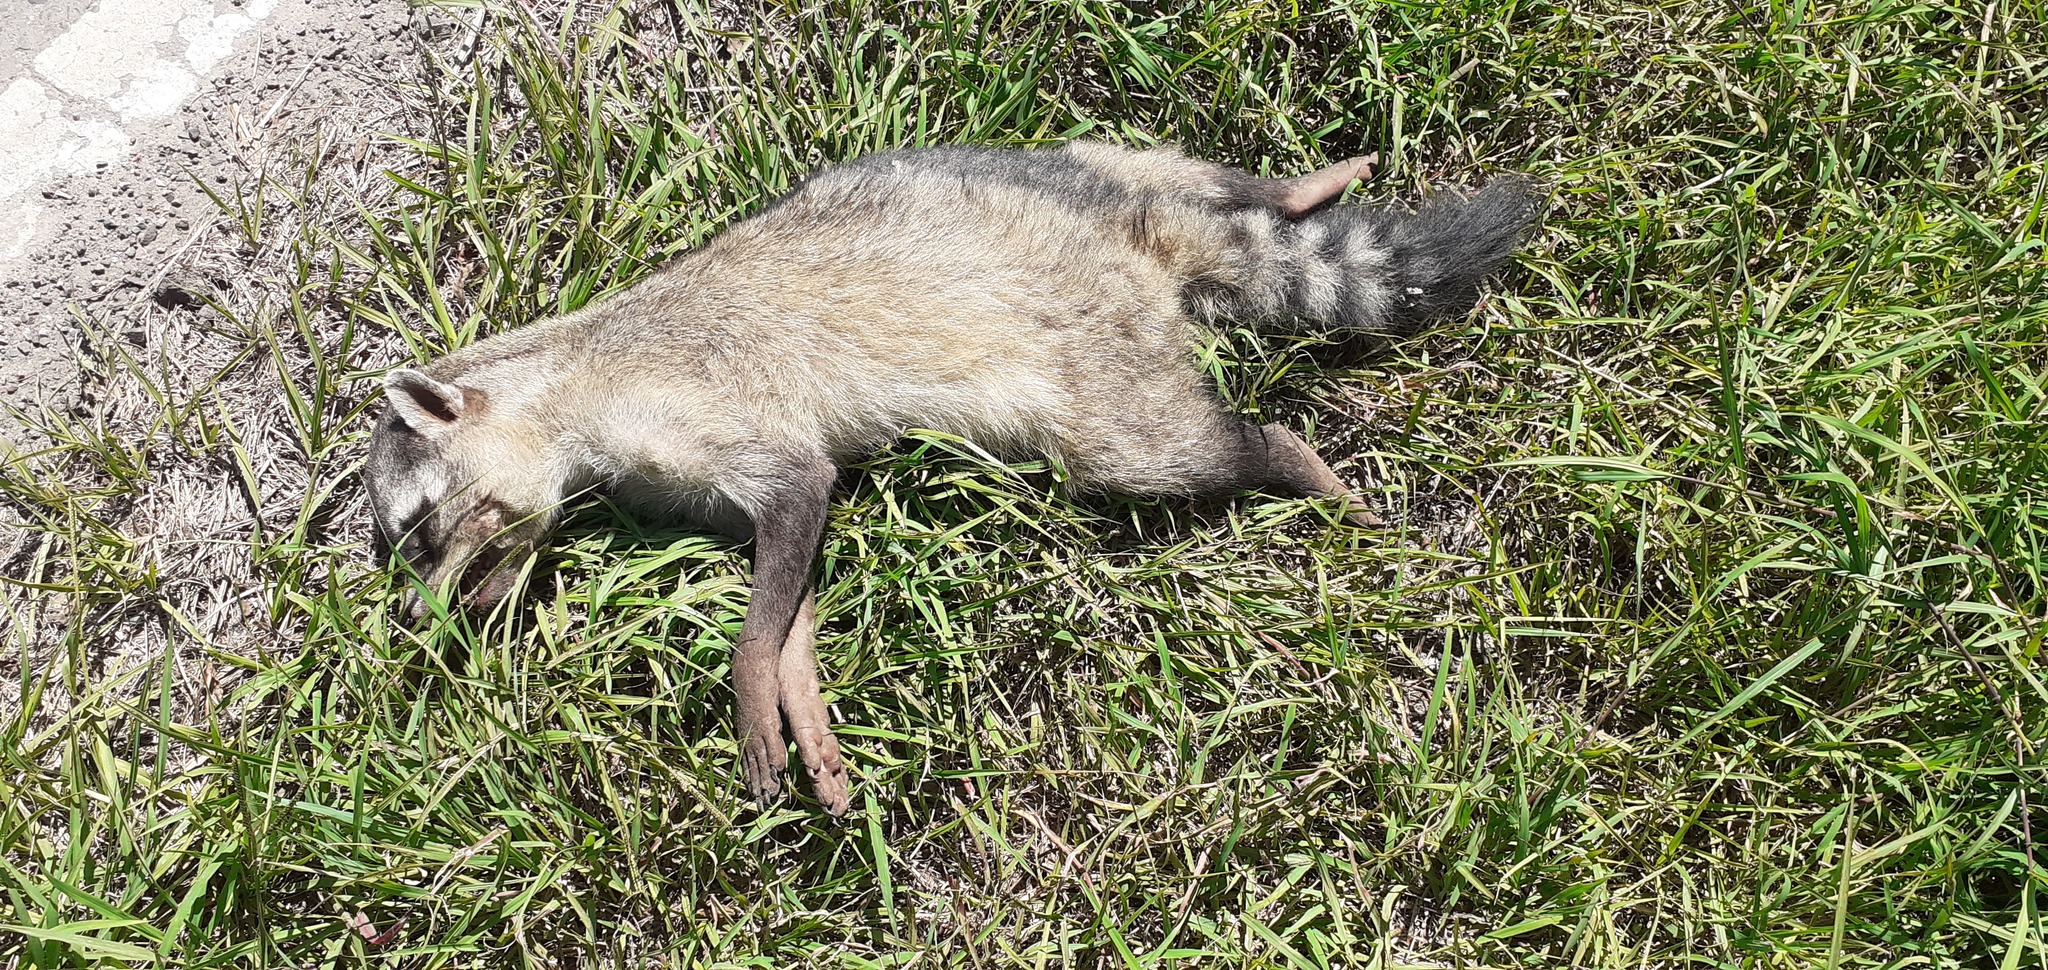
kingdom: Animalia
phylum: Chordata
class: Mammalia
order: Carnivora
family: Procyonidae
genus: Procyon
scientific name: Procyon cancrivorus
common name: Crab-eating raccoon
